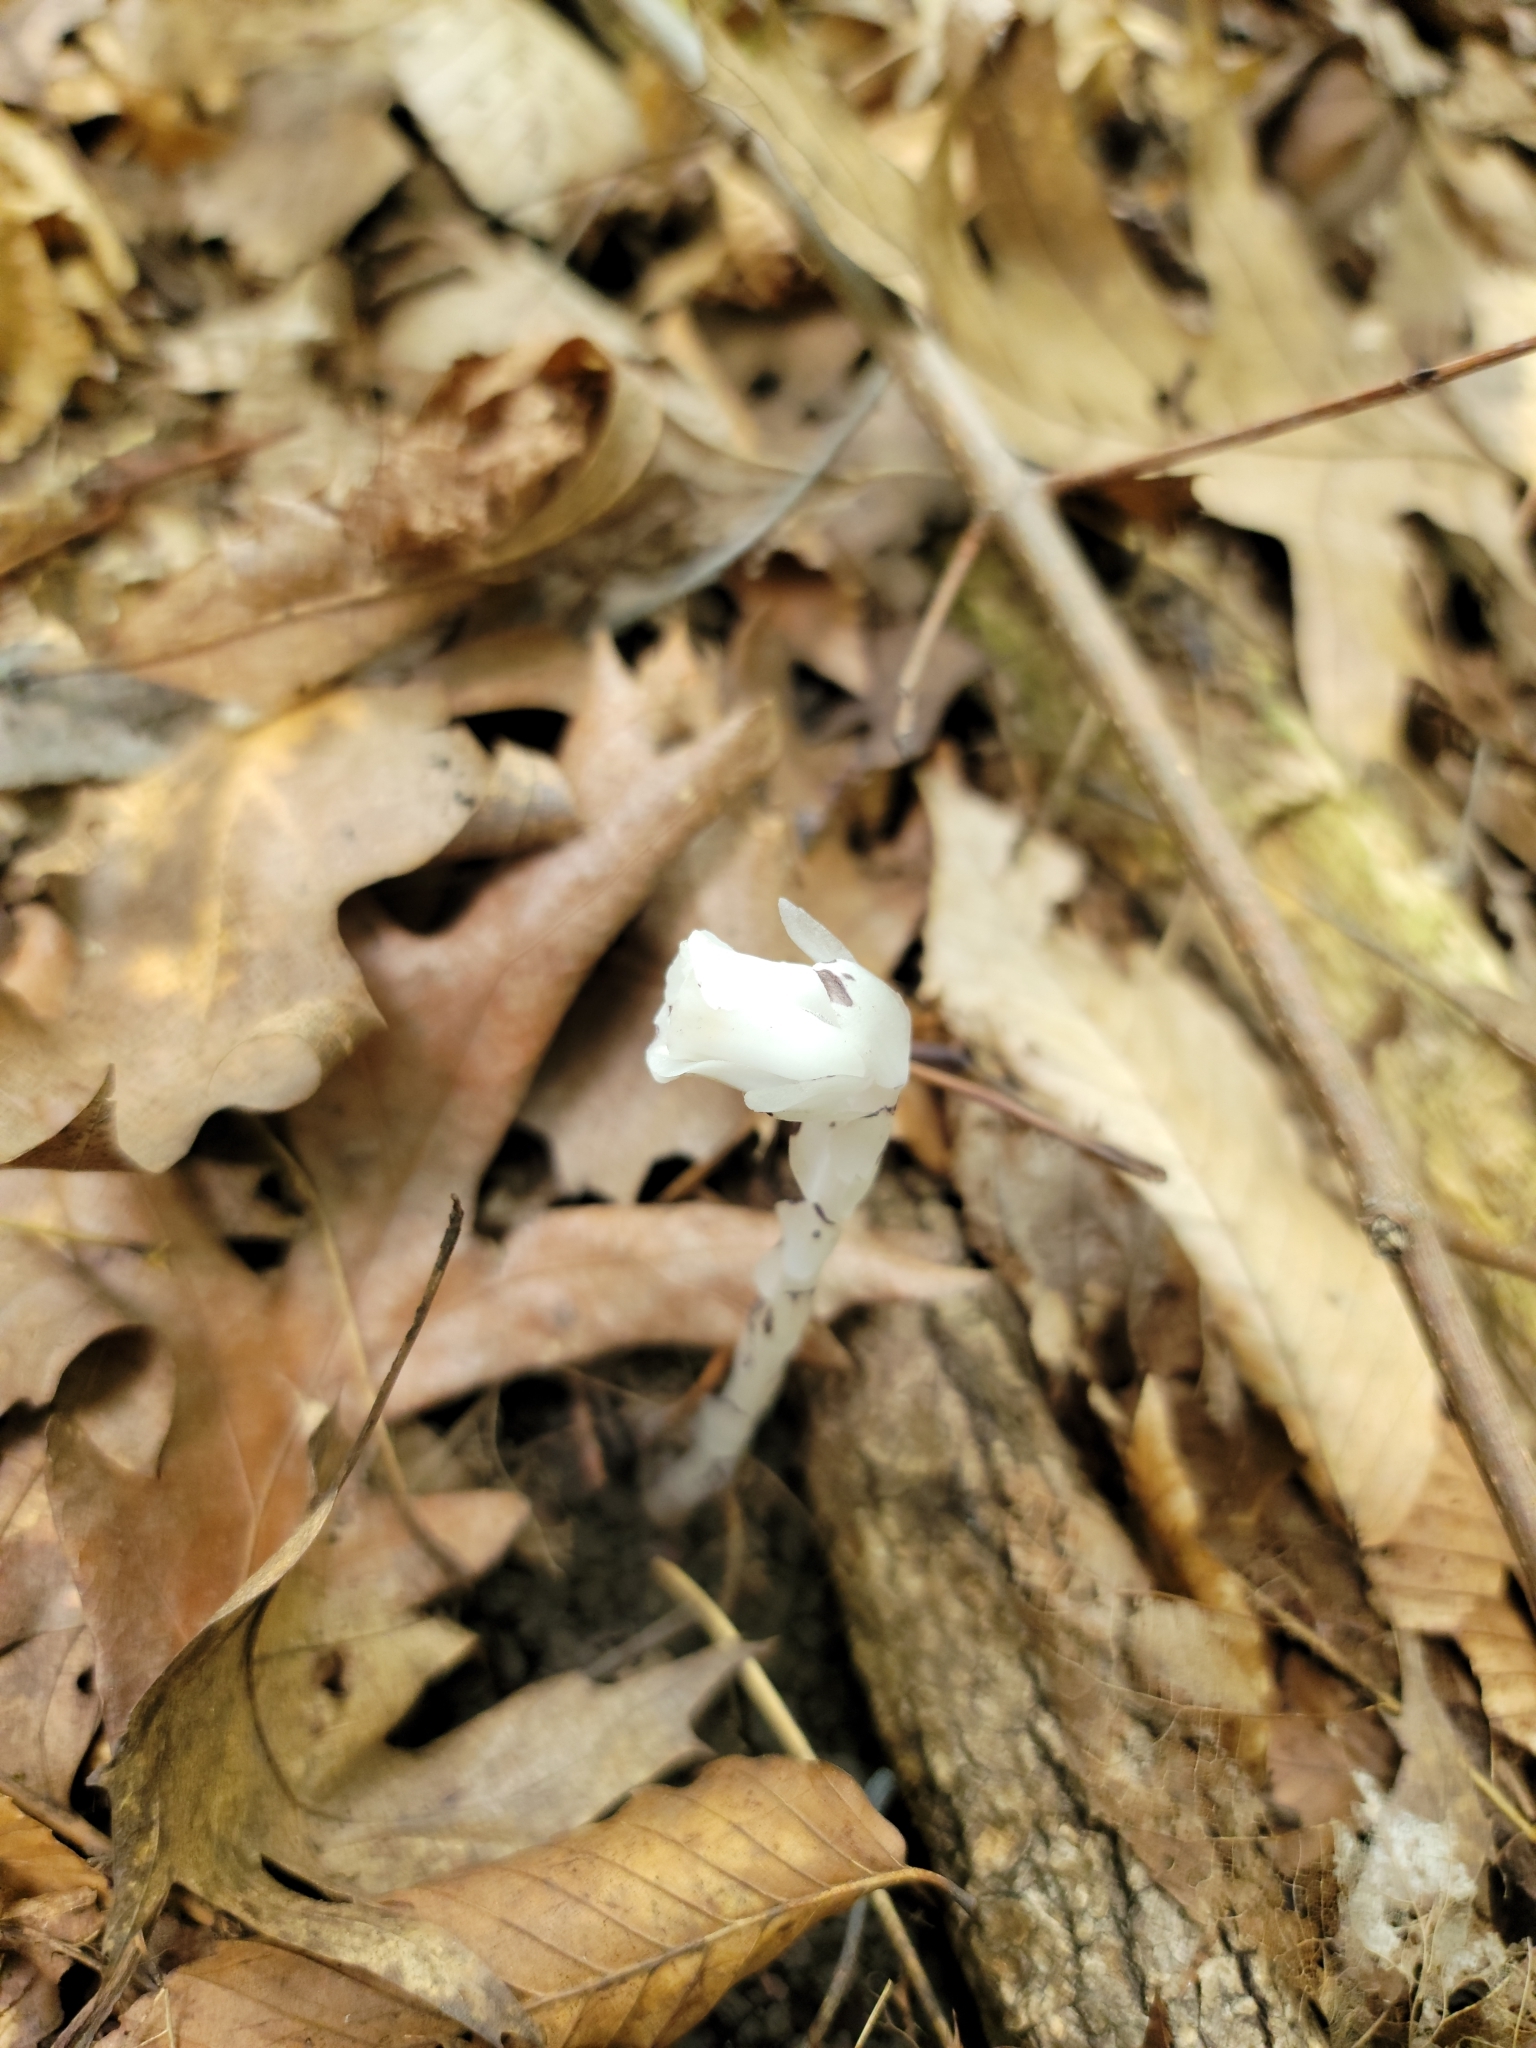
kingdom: Plantae
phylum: Tracheophyta
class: Magnoliopsida
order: Ericales
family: Ericaceae
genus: Monotropa
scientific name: Monotropa uniflora
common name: Convulsion root
